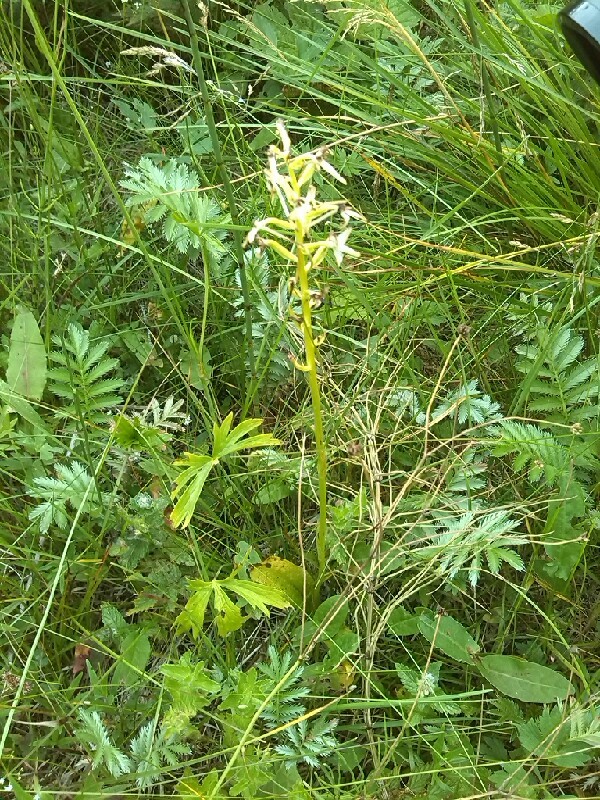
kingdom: Plantae
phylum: Tracheophyta
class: Liliopsida
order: Asparagales
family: Orchidaceae
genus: Platanthera
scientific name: Platanthera bifolia
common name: Lesser butterfly-orchid
